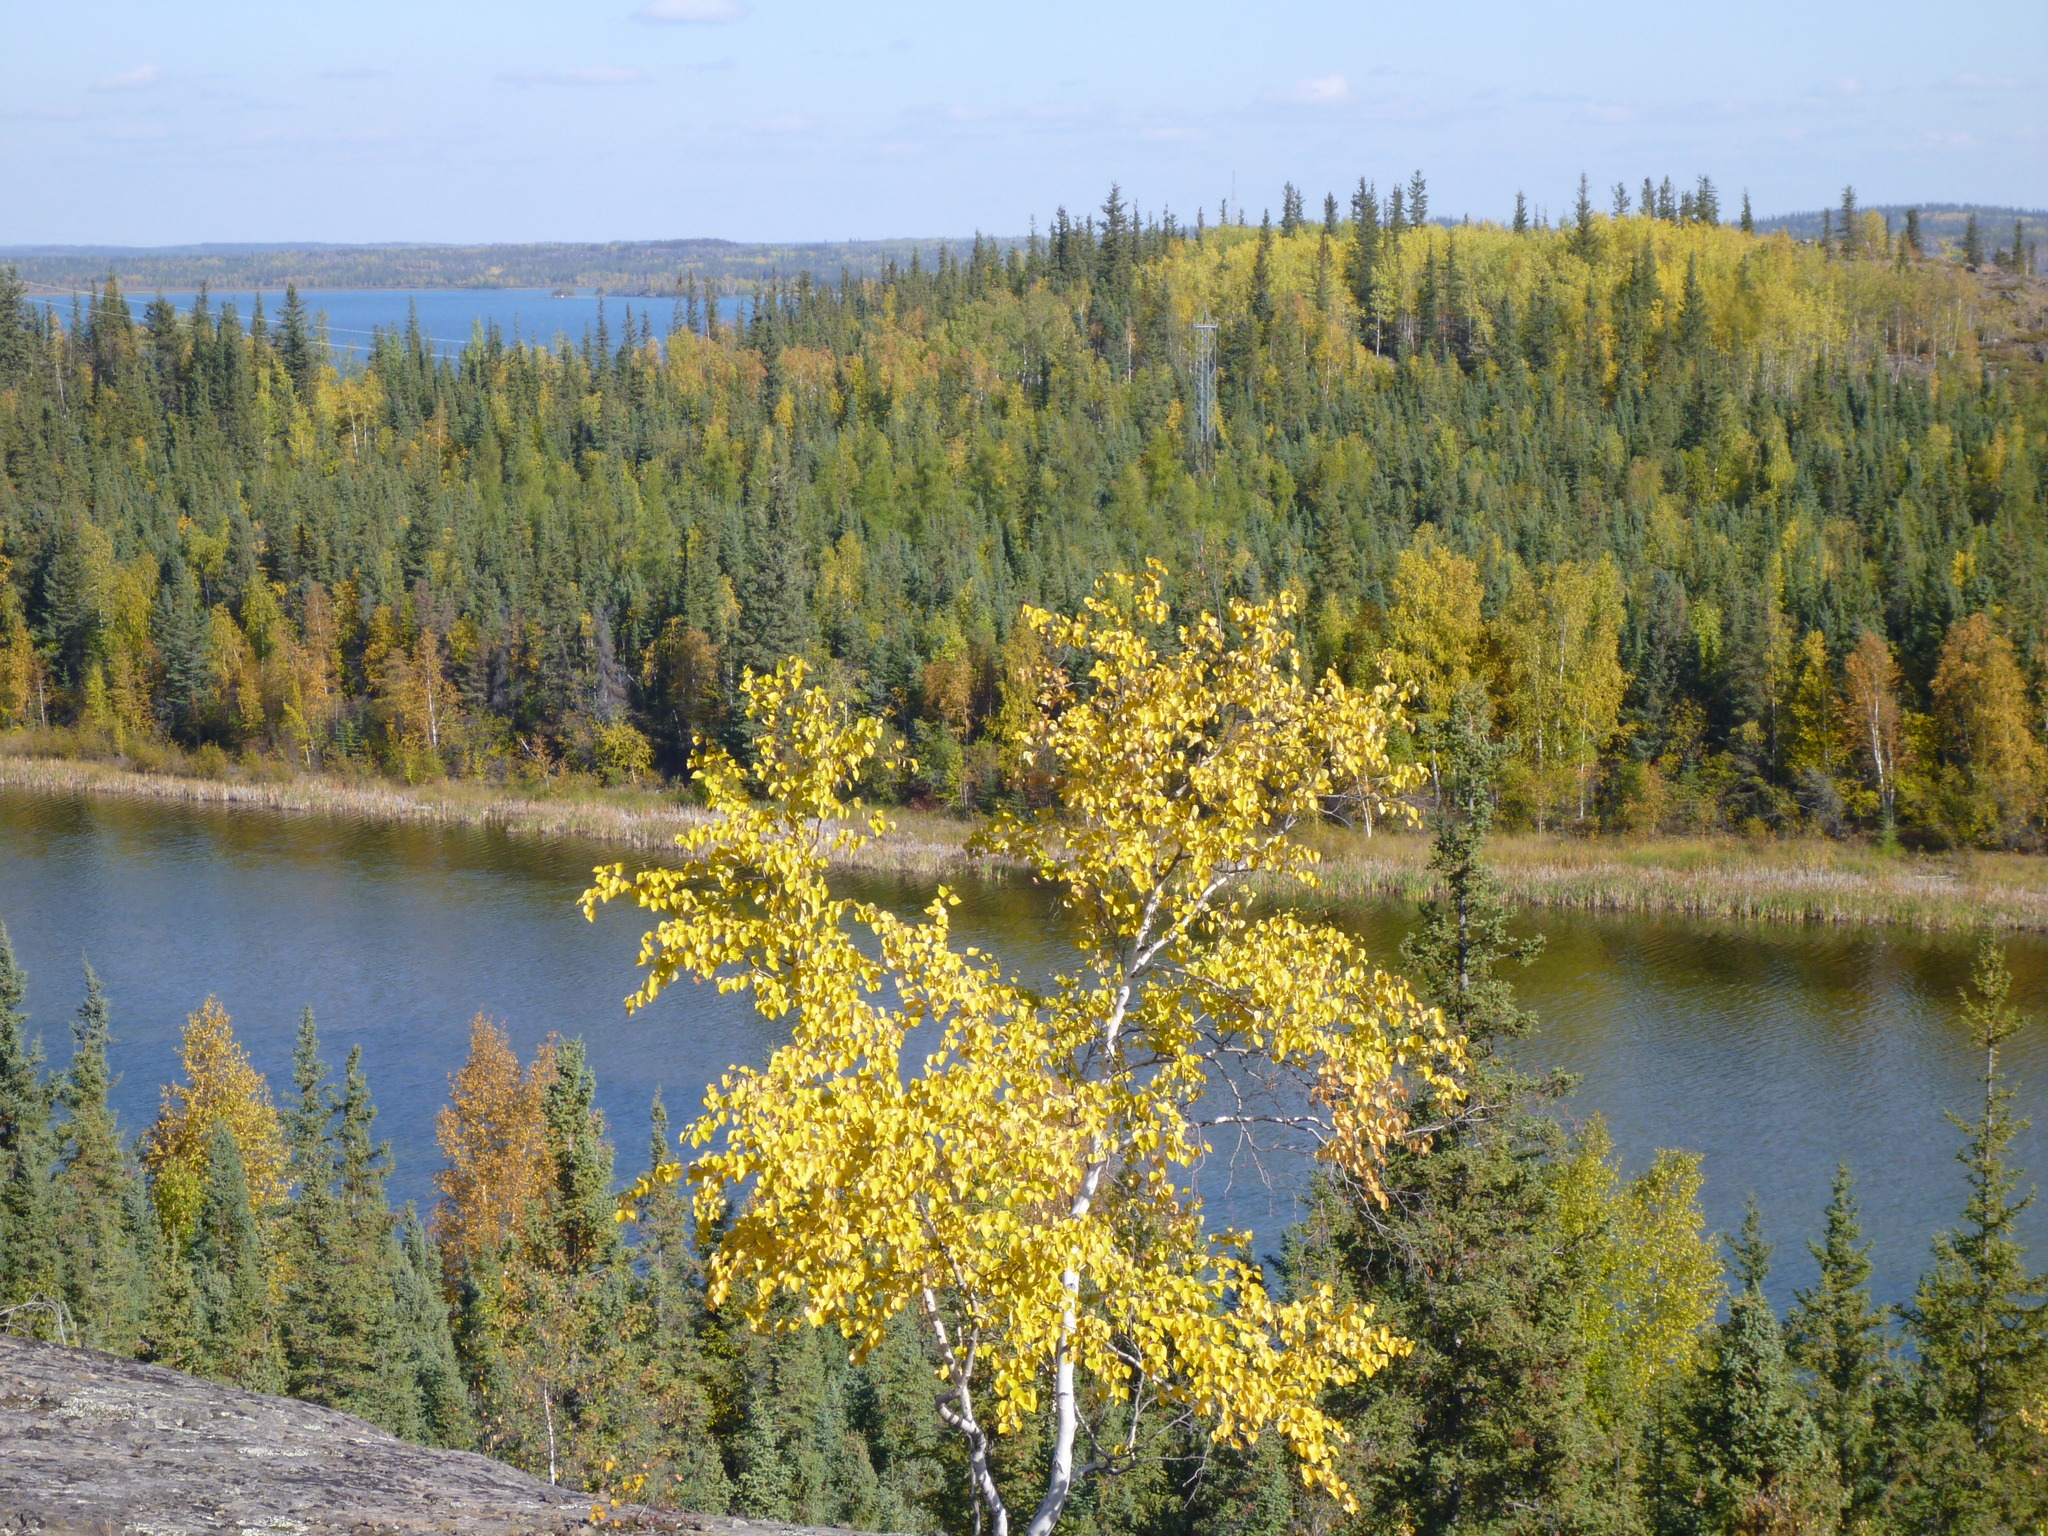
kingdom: Plantae
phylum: Tracheophyta
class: Magnoliopsida
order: Fagales
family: Betulaceae
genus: Betula
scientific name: Betula pendula
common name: Silver birch
